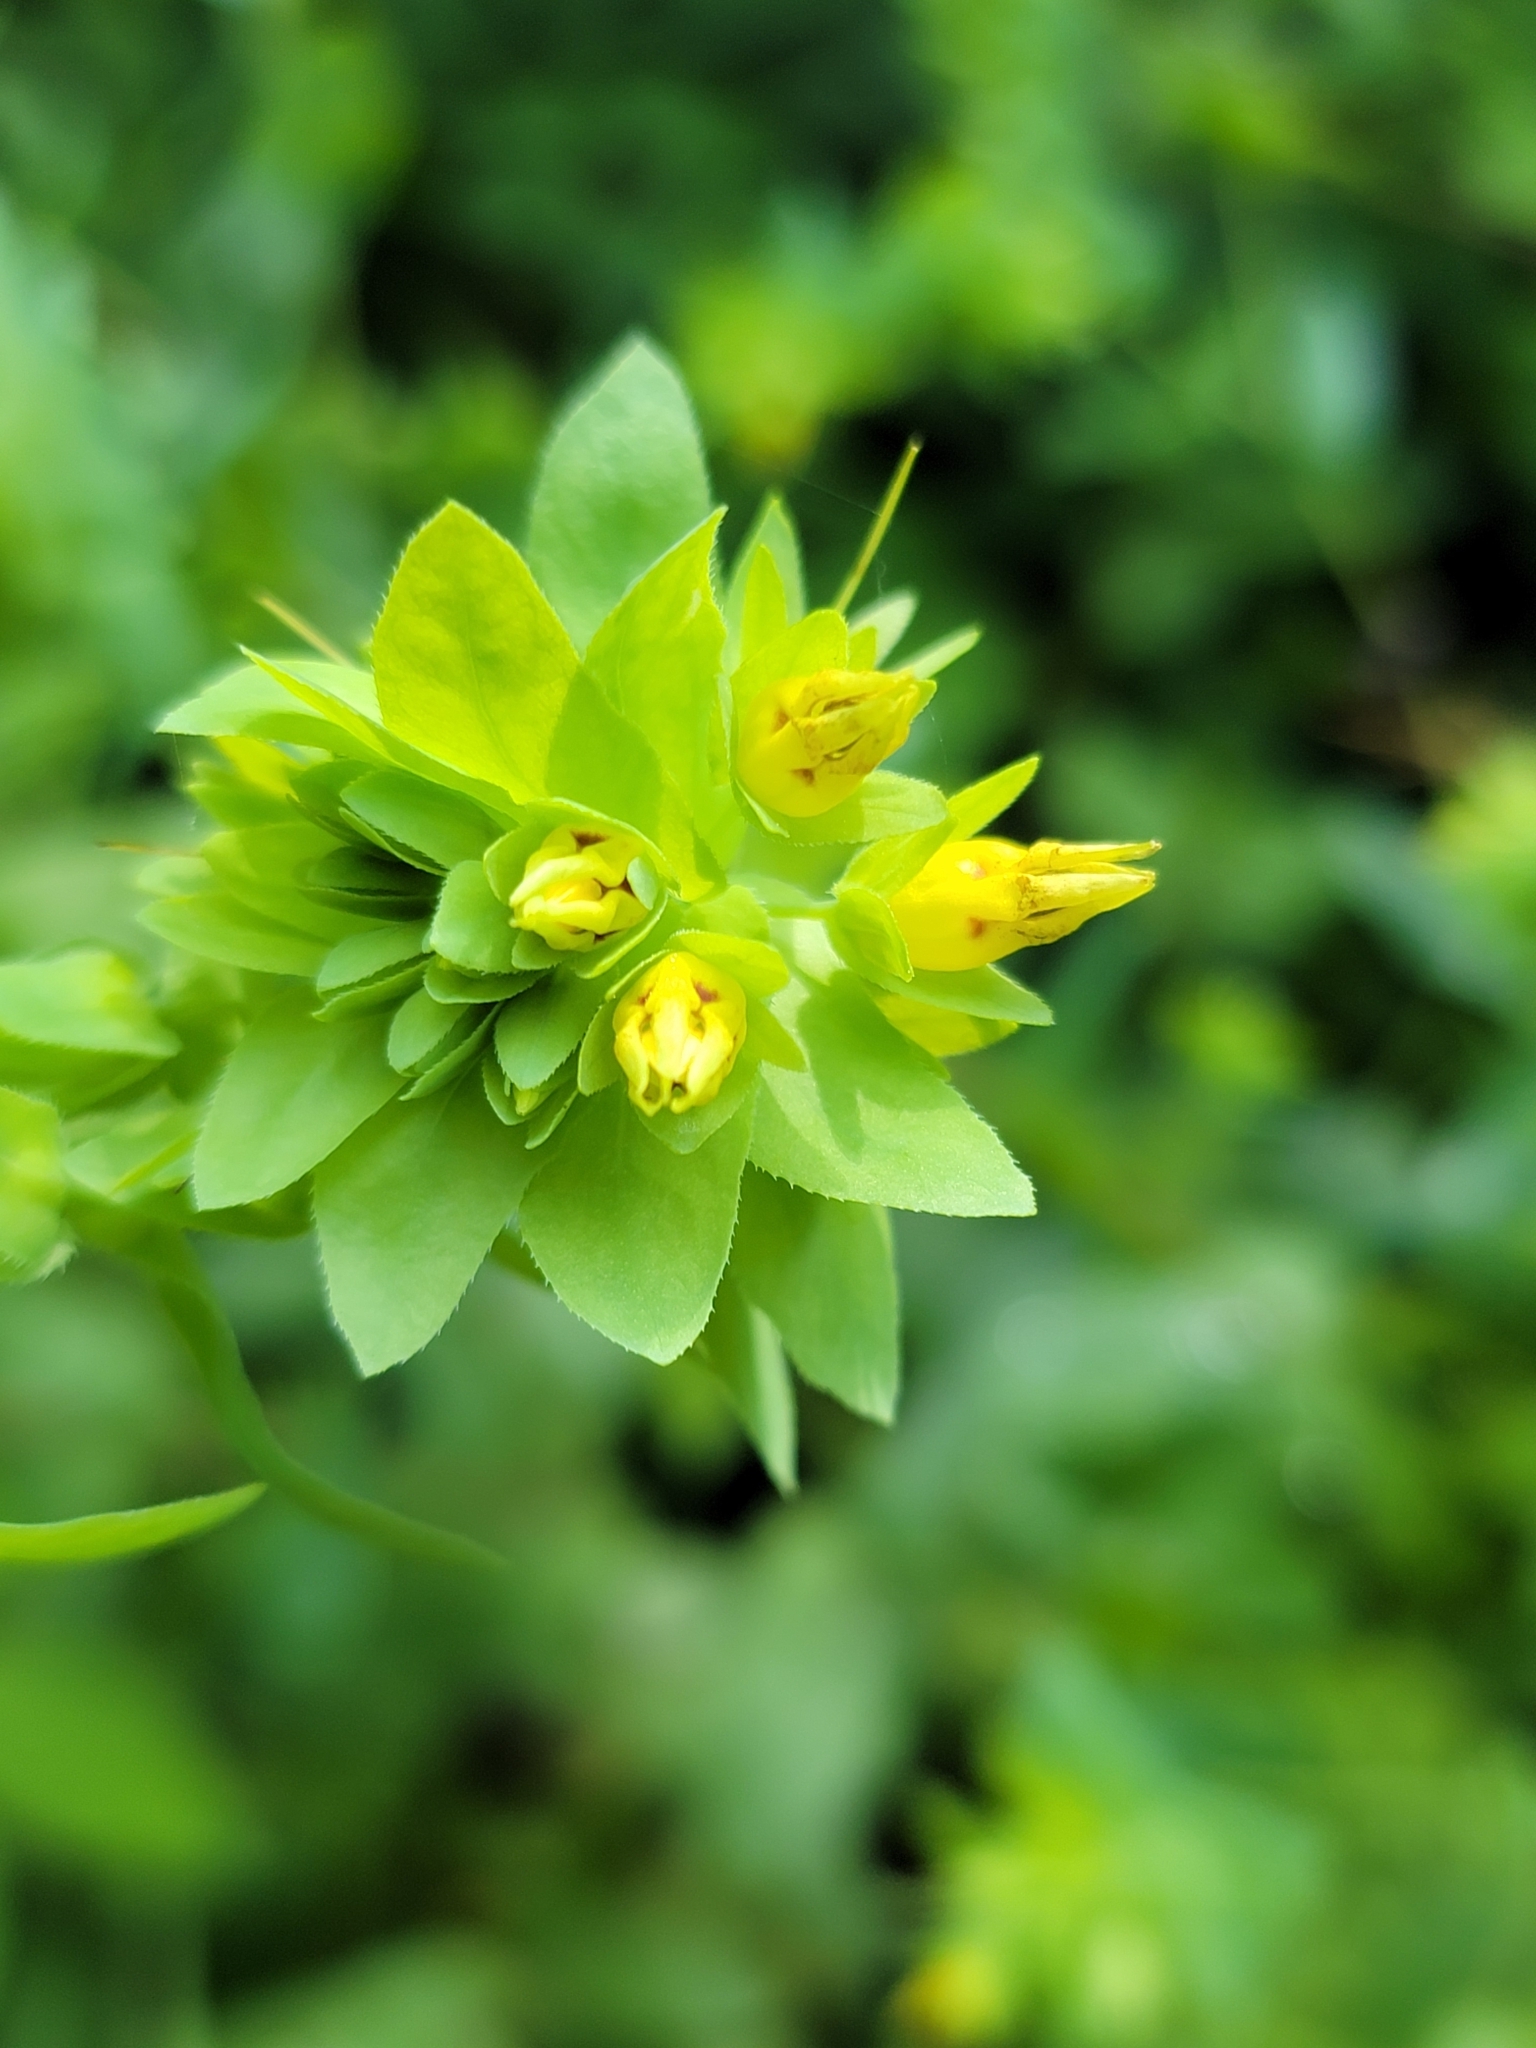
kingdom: Plantae
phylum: Tracheophyta
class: Magnoliopsida
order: Boraginales
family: Boraginaceae
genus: Cerinthe
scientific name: Cerinthe minor
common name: Lesser honeywort
